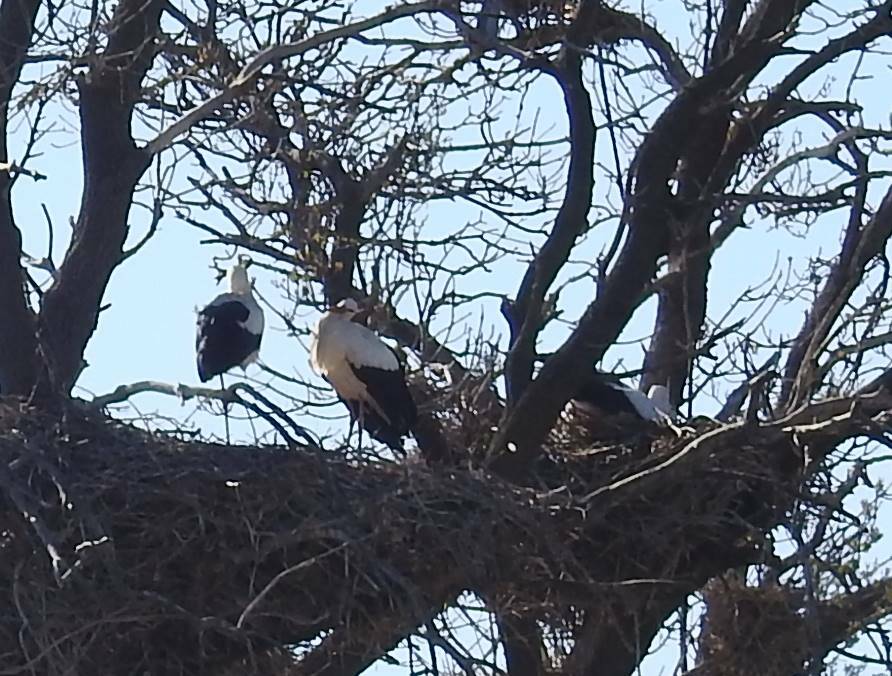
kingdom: Animalia
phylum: Chordata
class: Aves
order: Ciconiiformes
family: Ciconiidae
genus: Ciconia
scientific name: Ciconia ciconia
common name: White stork
